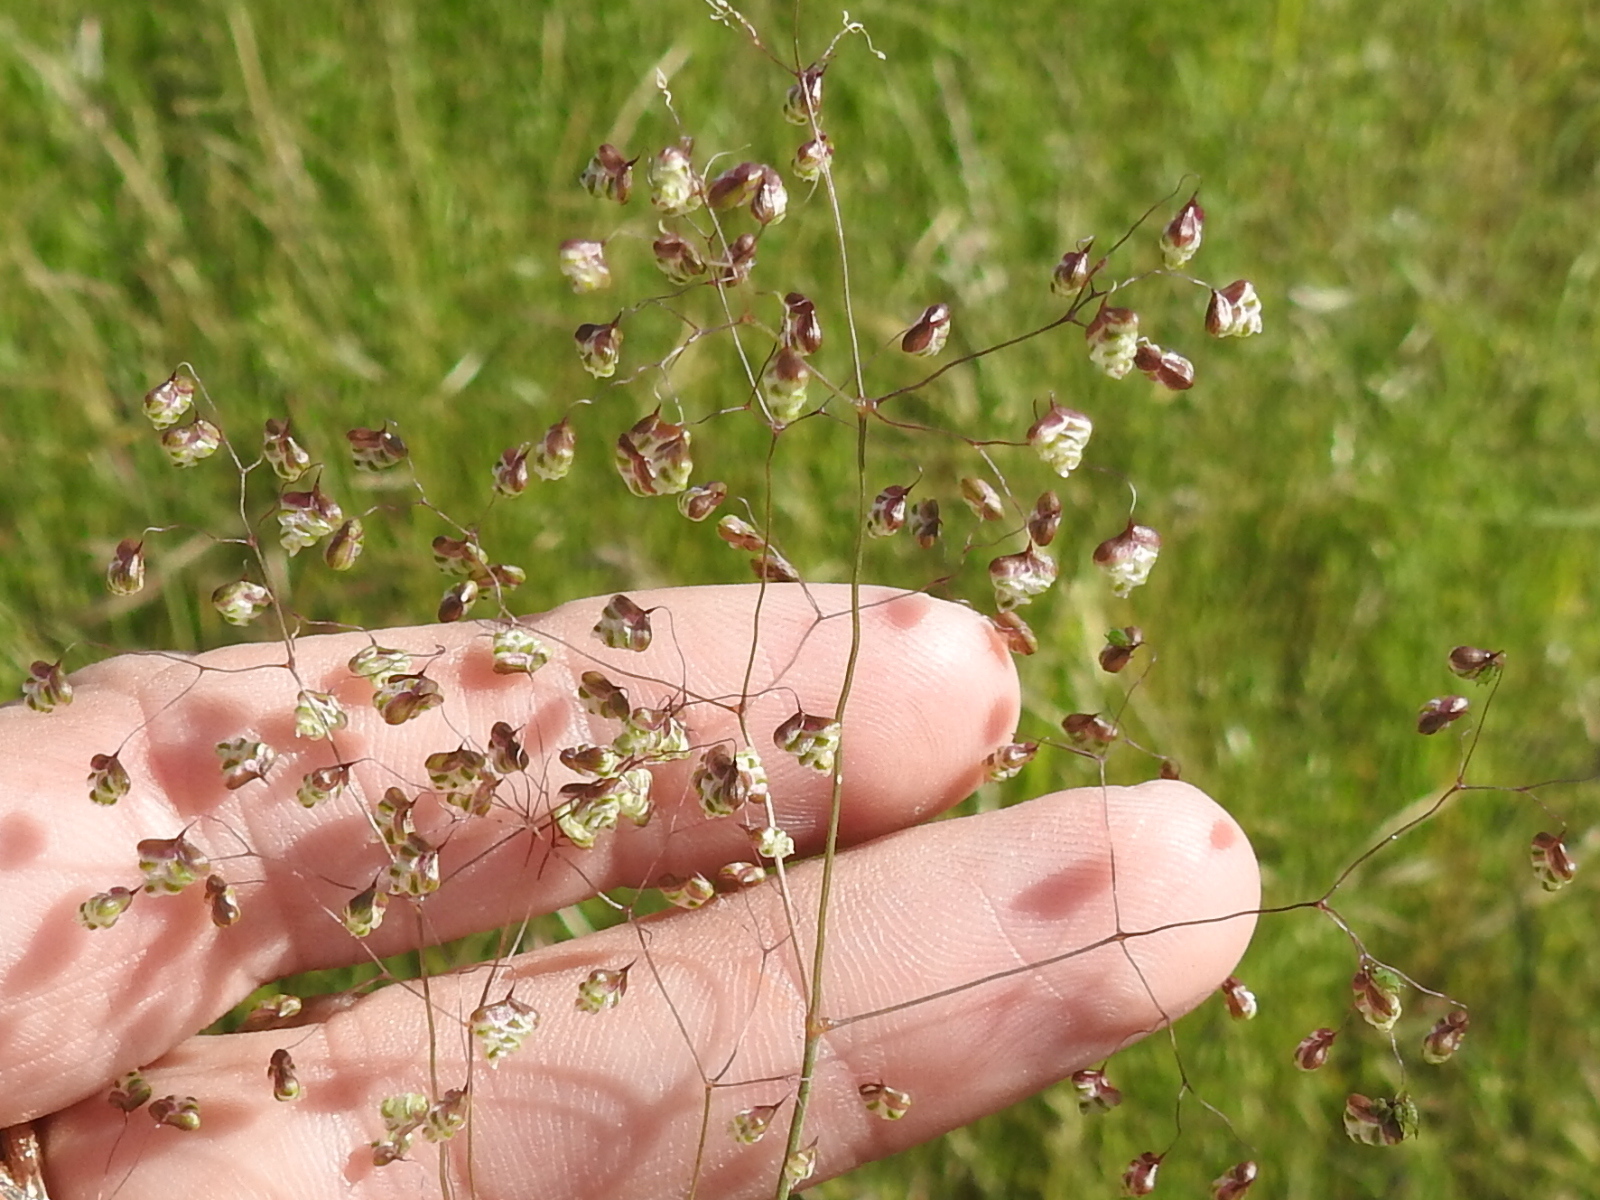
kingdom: Plantae
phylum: Tracheophyta
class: Liliopsida
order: Poales
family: Poaceae
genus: Briza
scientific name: Briza minor
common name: Lesser quaking-grass
